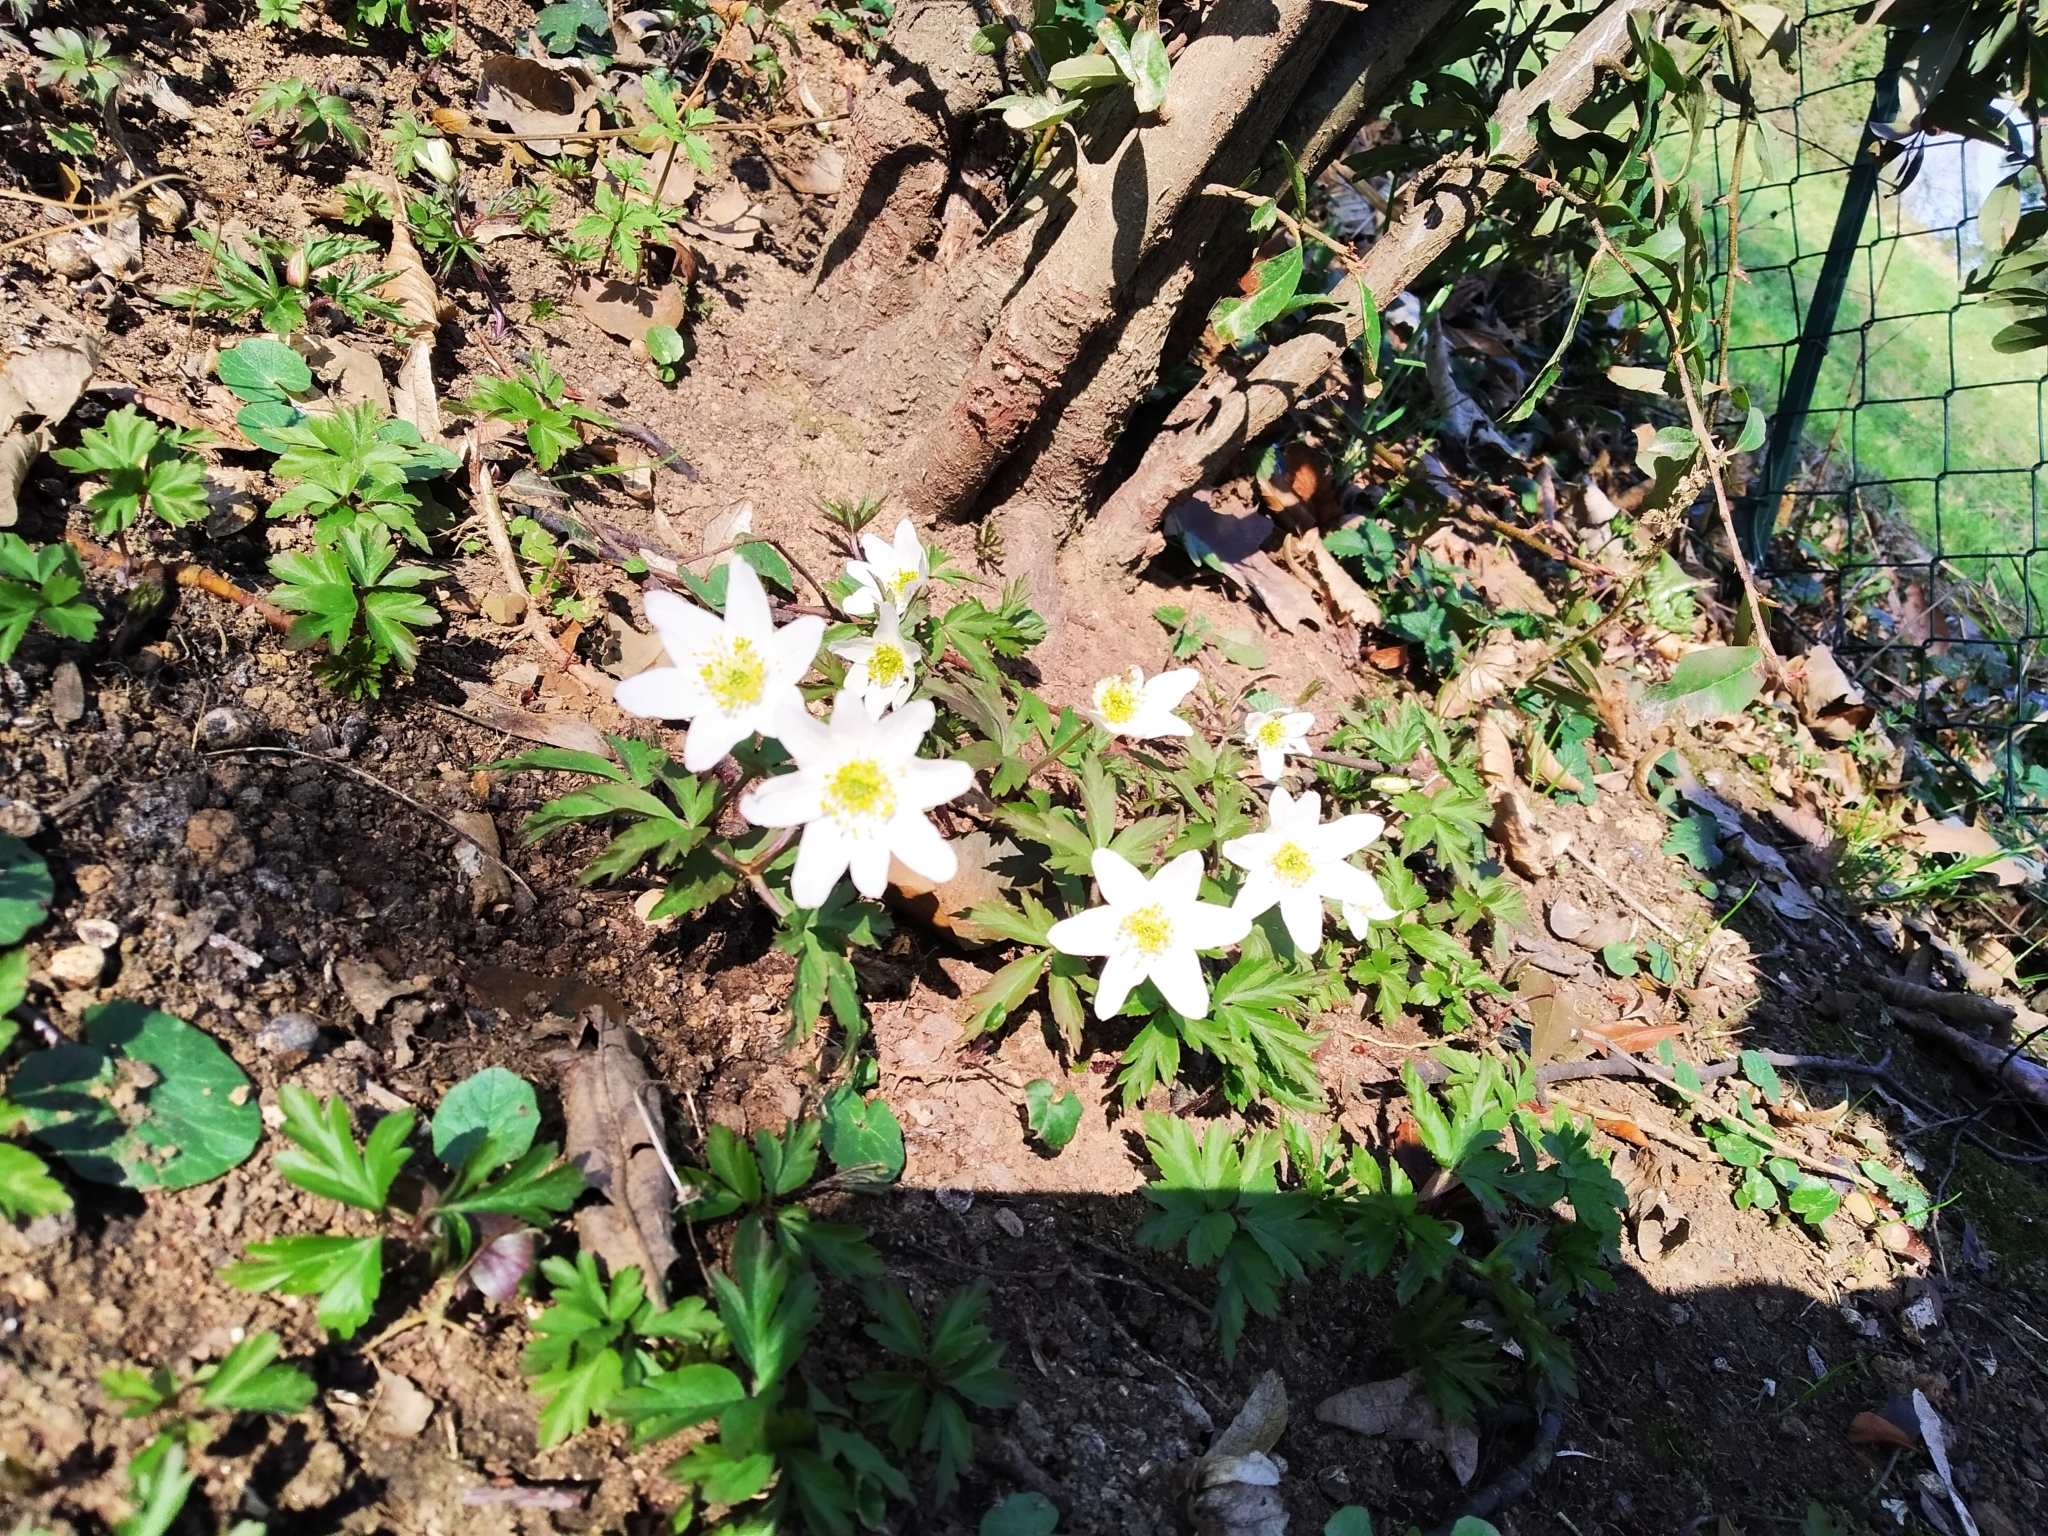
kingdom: Plantae
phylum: Tracheophyta
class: Magnoliopsida
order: Ranunculales
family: Ranunculaceae
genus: Anemone
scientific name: Anemone nemorosa
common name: Wood anemone
